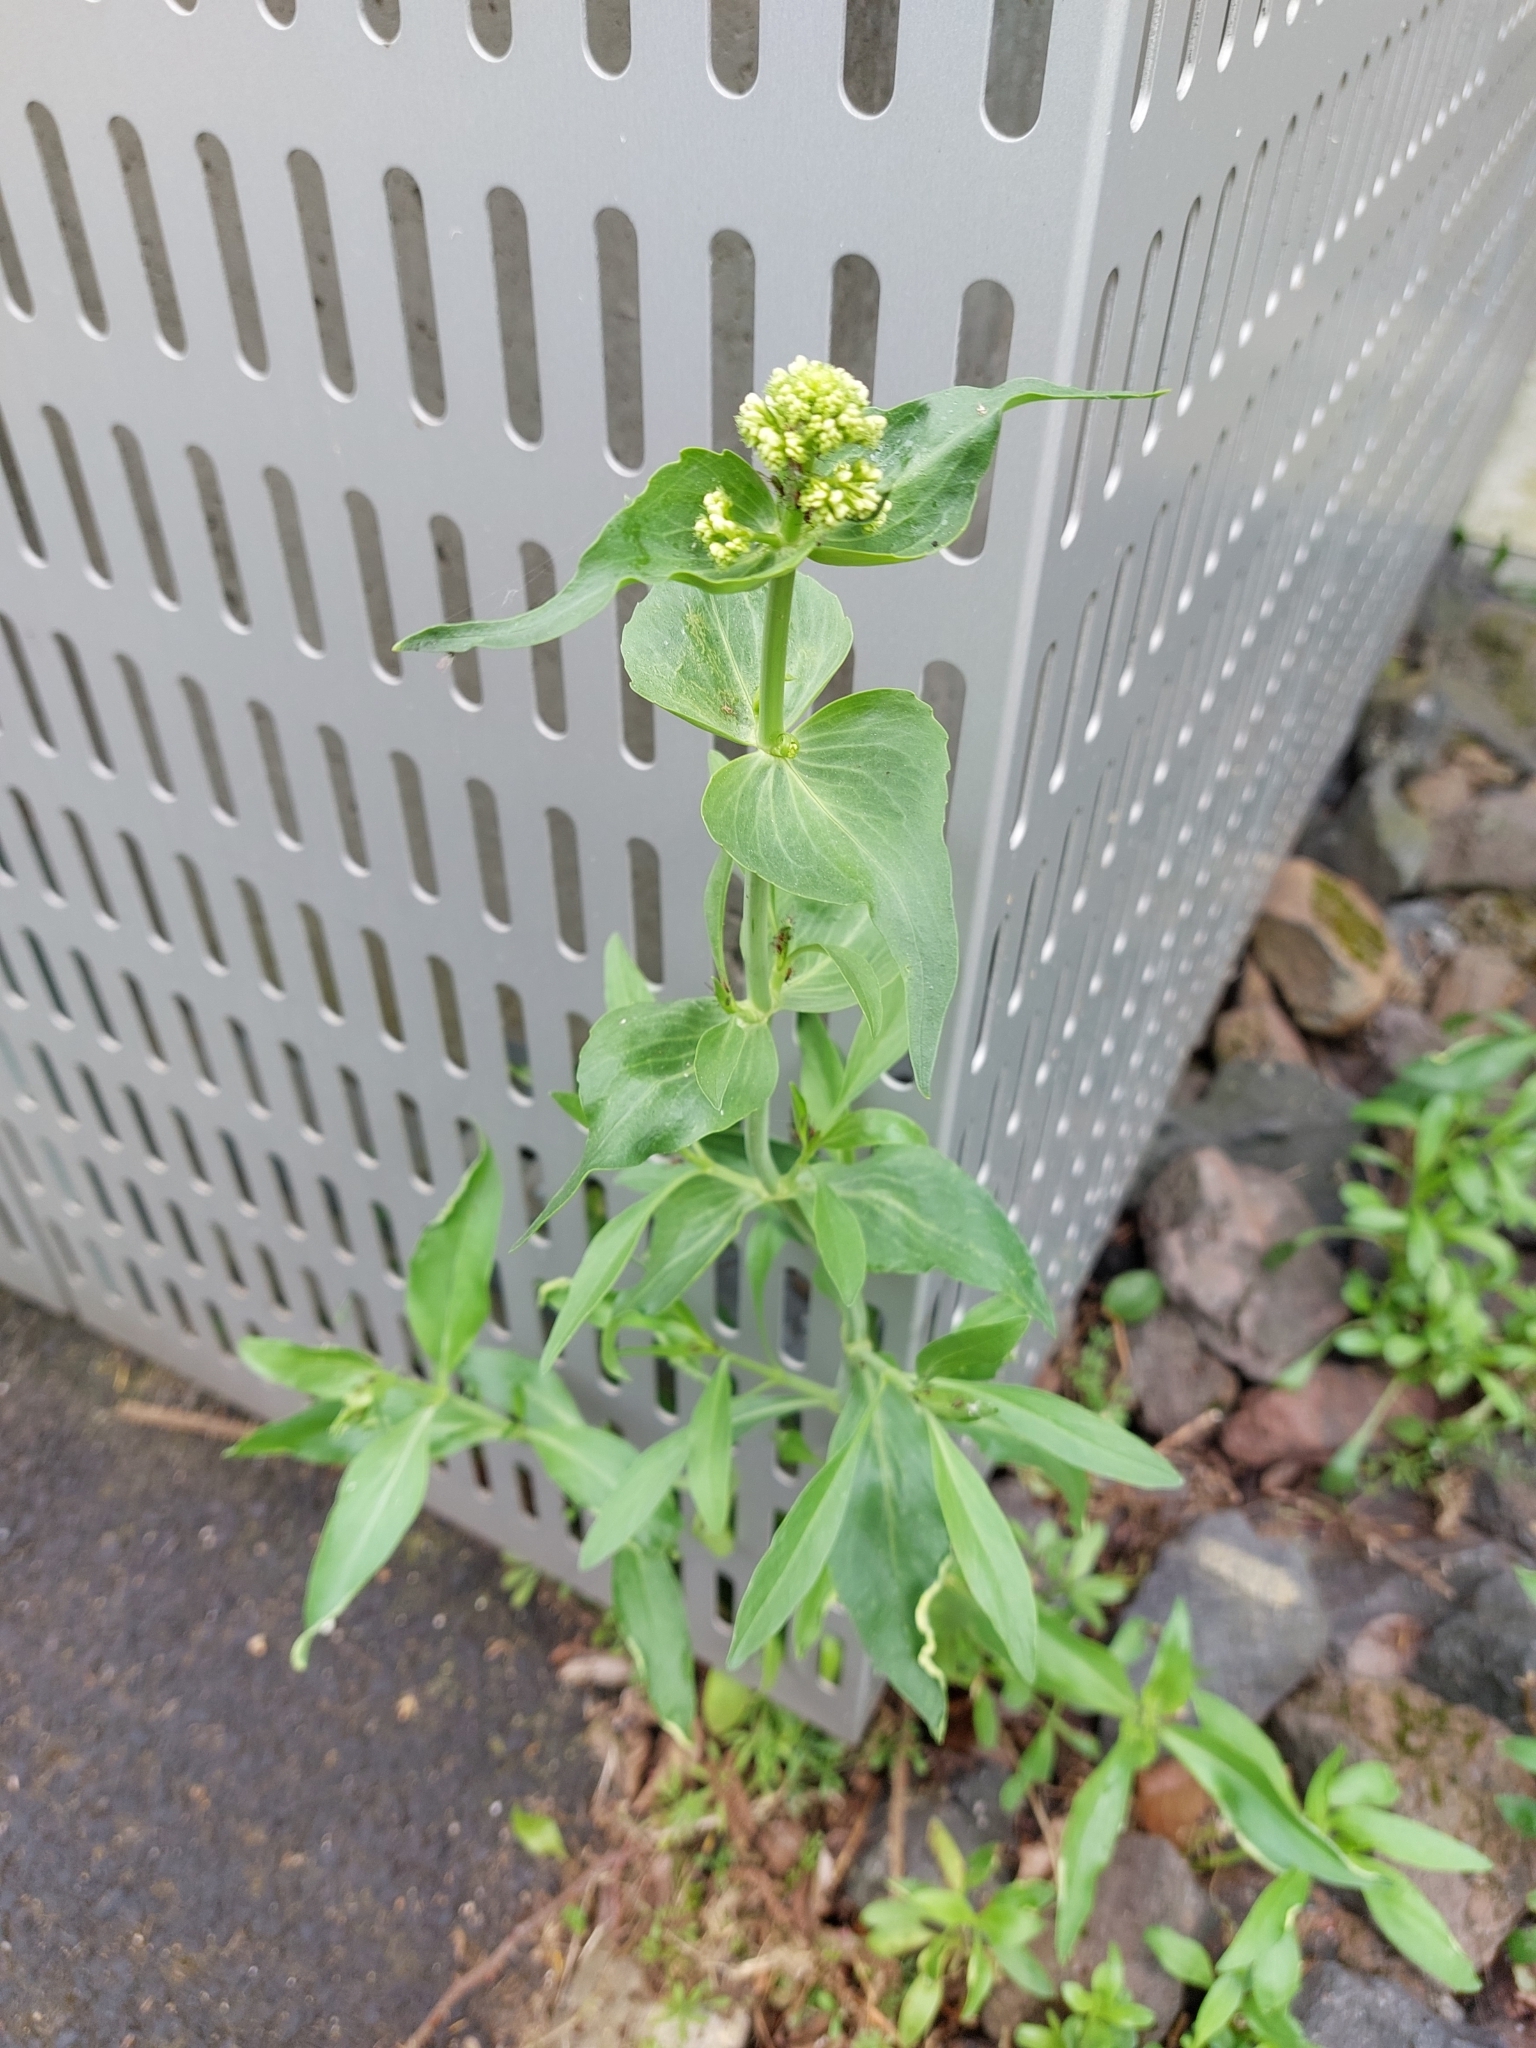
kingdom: Plantae
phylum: Tracheophyta
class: Magnoliopsida
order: Dipsacales
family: Caprifoliaceae
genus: Centranthus
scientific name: Centranthus ruber
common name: Red valerian
